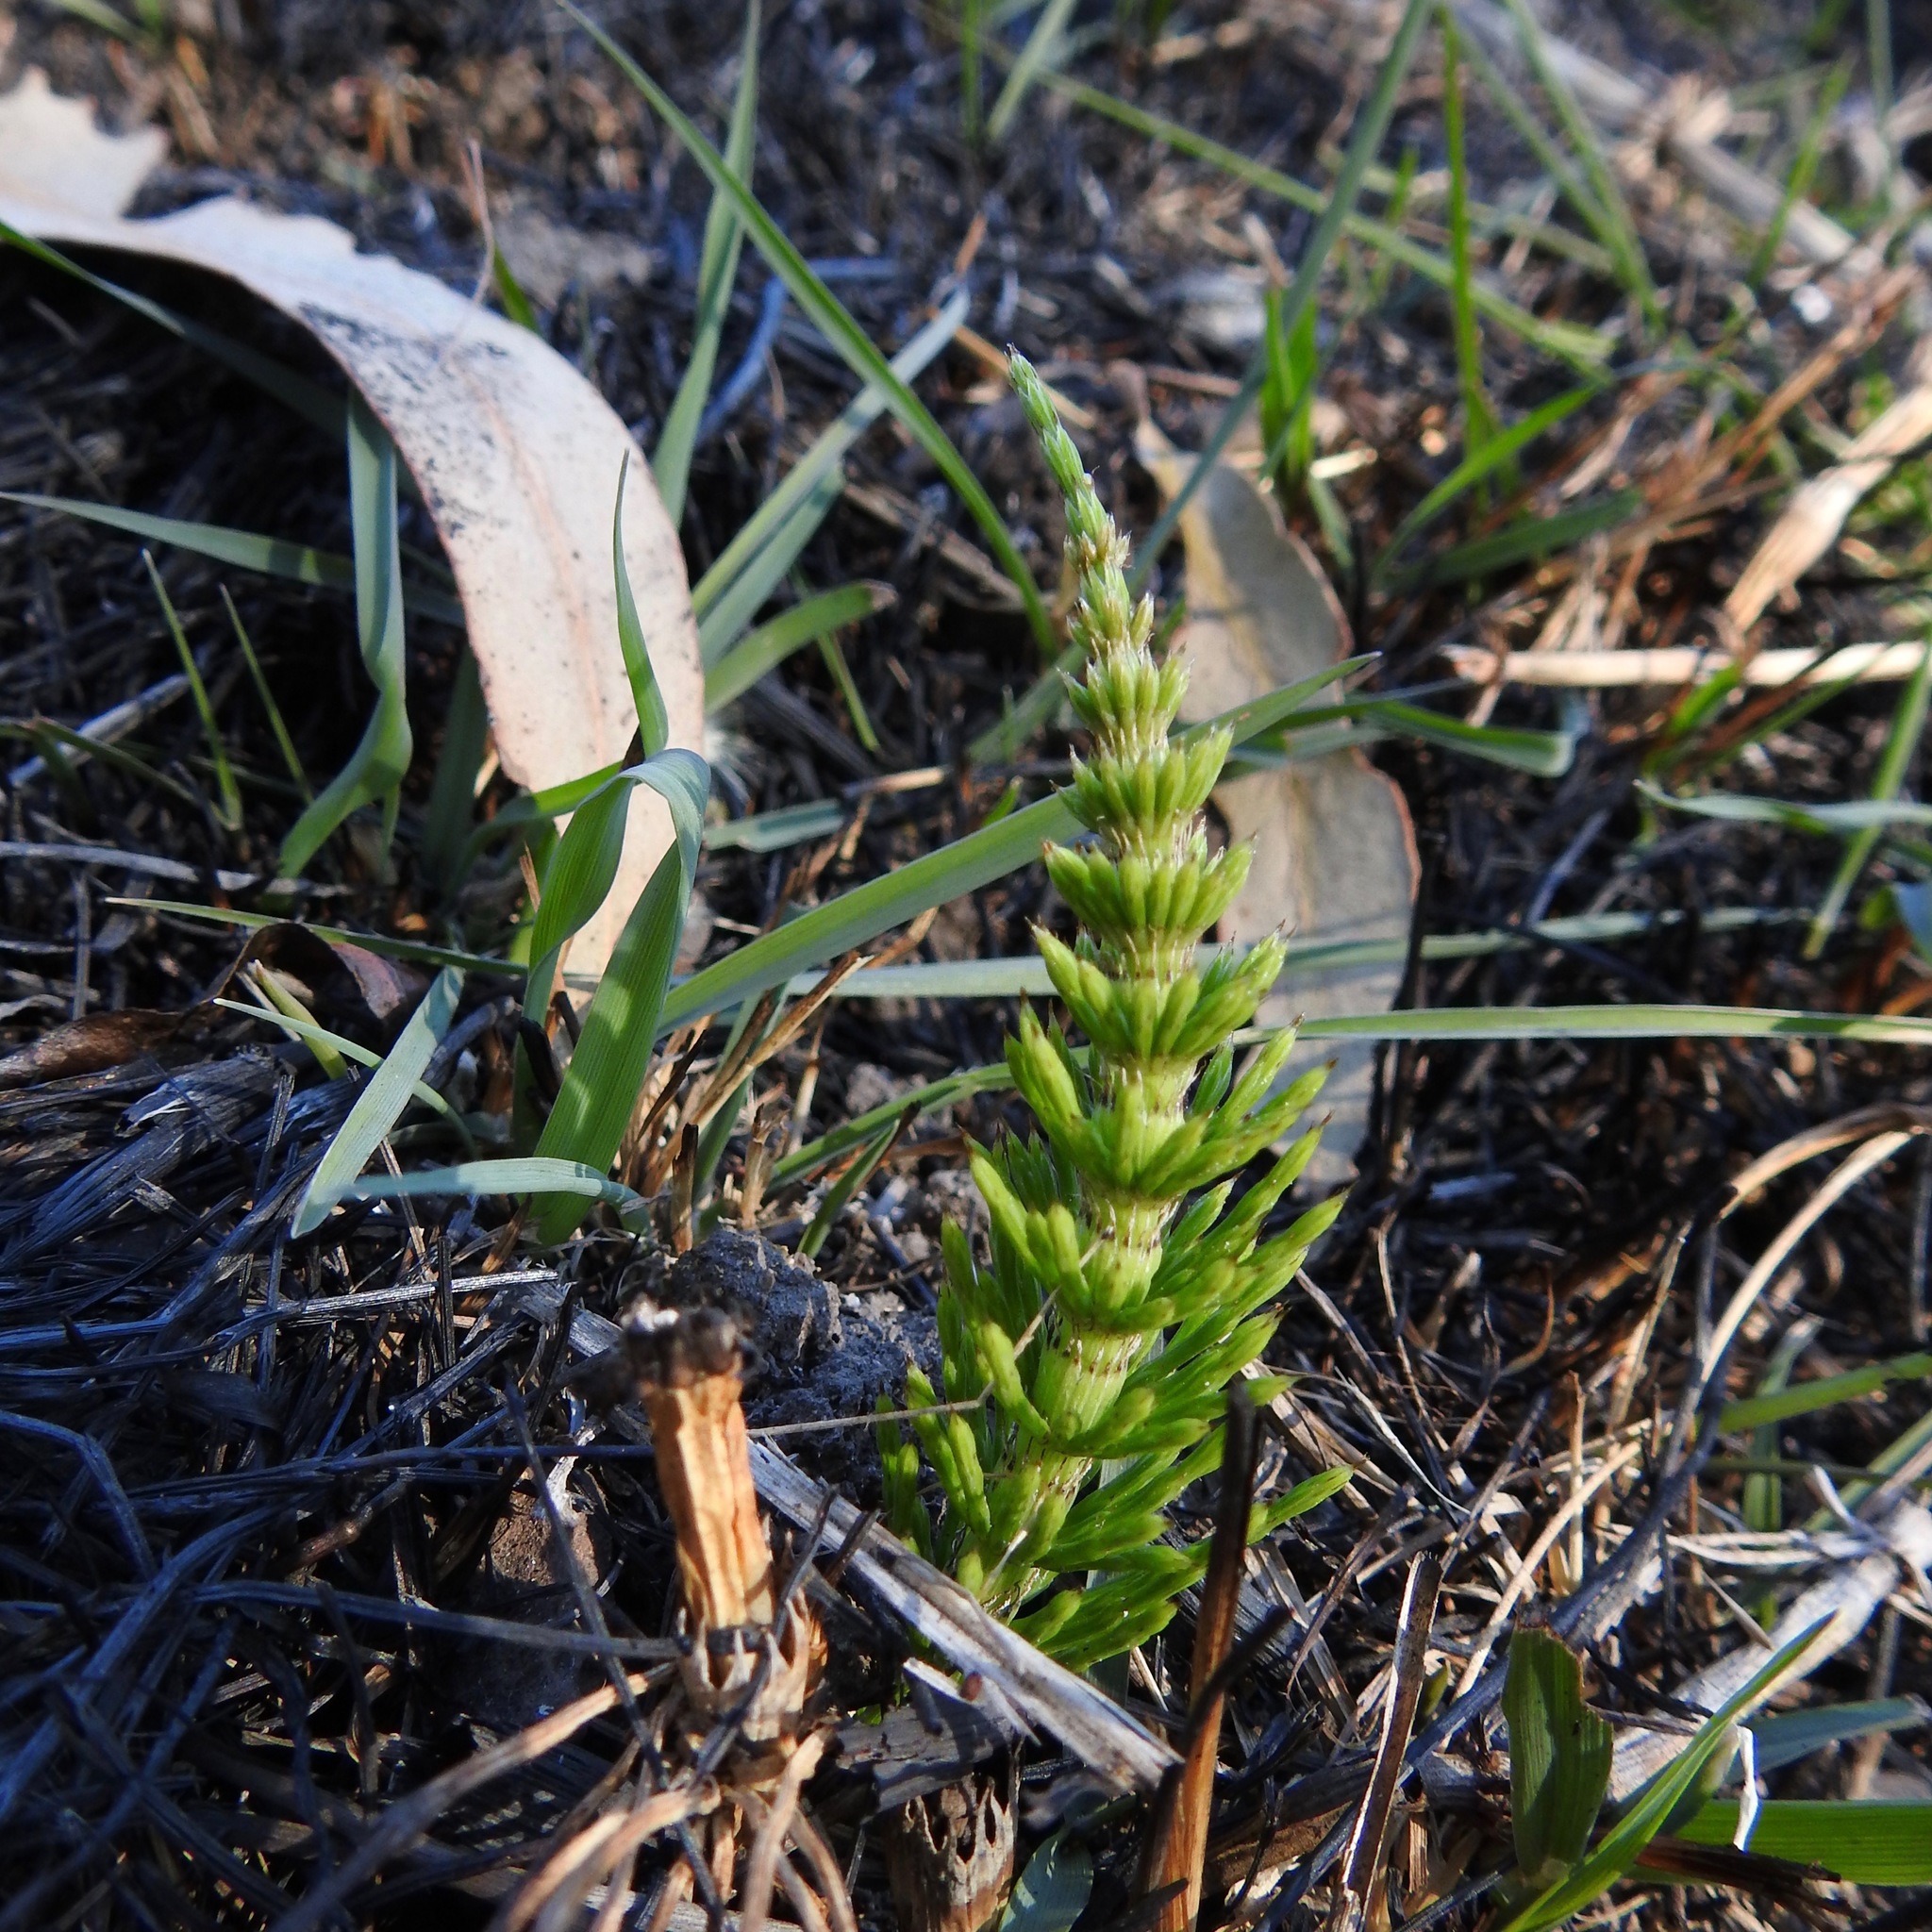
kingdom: Plantae
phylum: Tracheophyta
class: Polypodiopsida
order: Equisetales
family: Equisetaceae
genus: Equisetum
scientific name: Equisetum braunii
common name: Braun's horsetail
